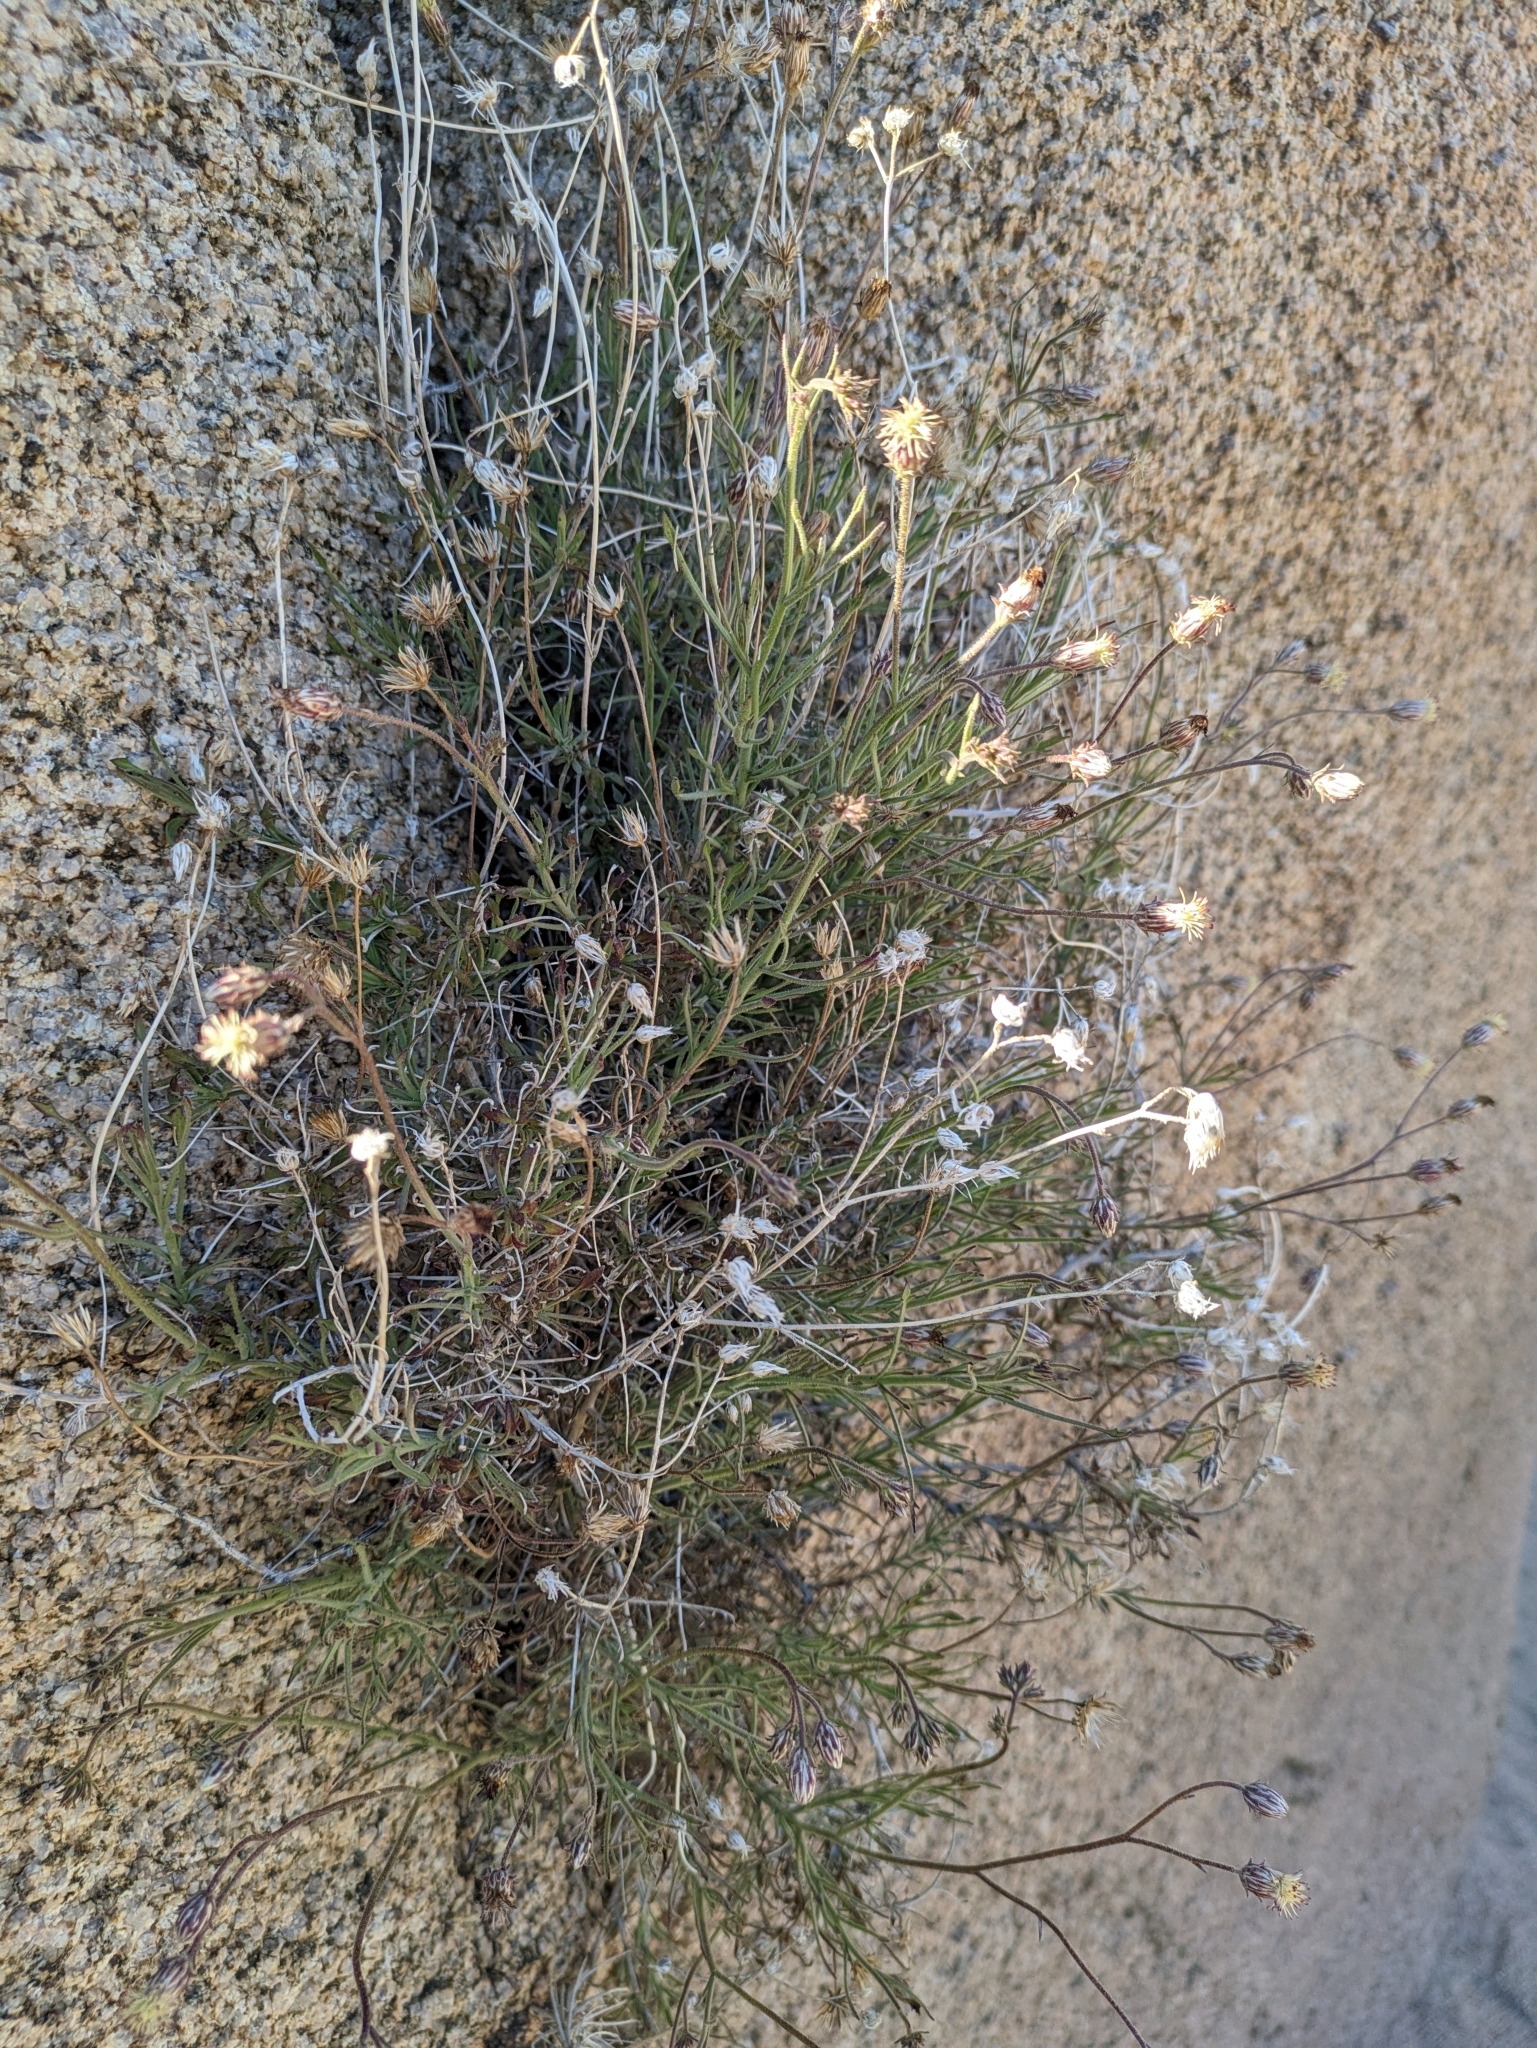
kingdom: Plantae
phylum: Tracheophyta
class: Magnoliopsida
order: Asterales
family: Asteraceae
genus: Pleurocoronis
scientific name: Pleurocoronis pluriseta
